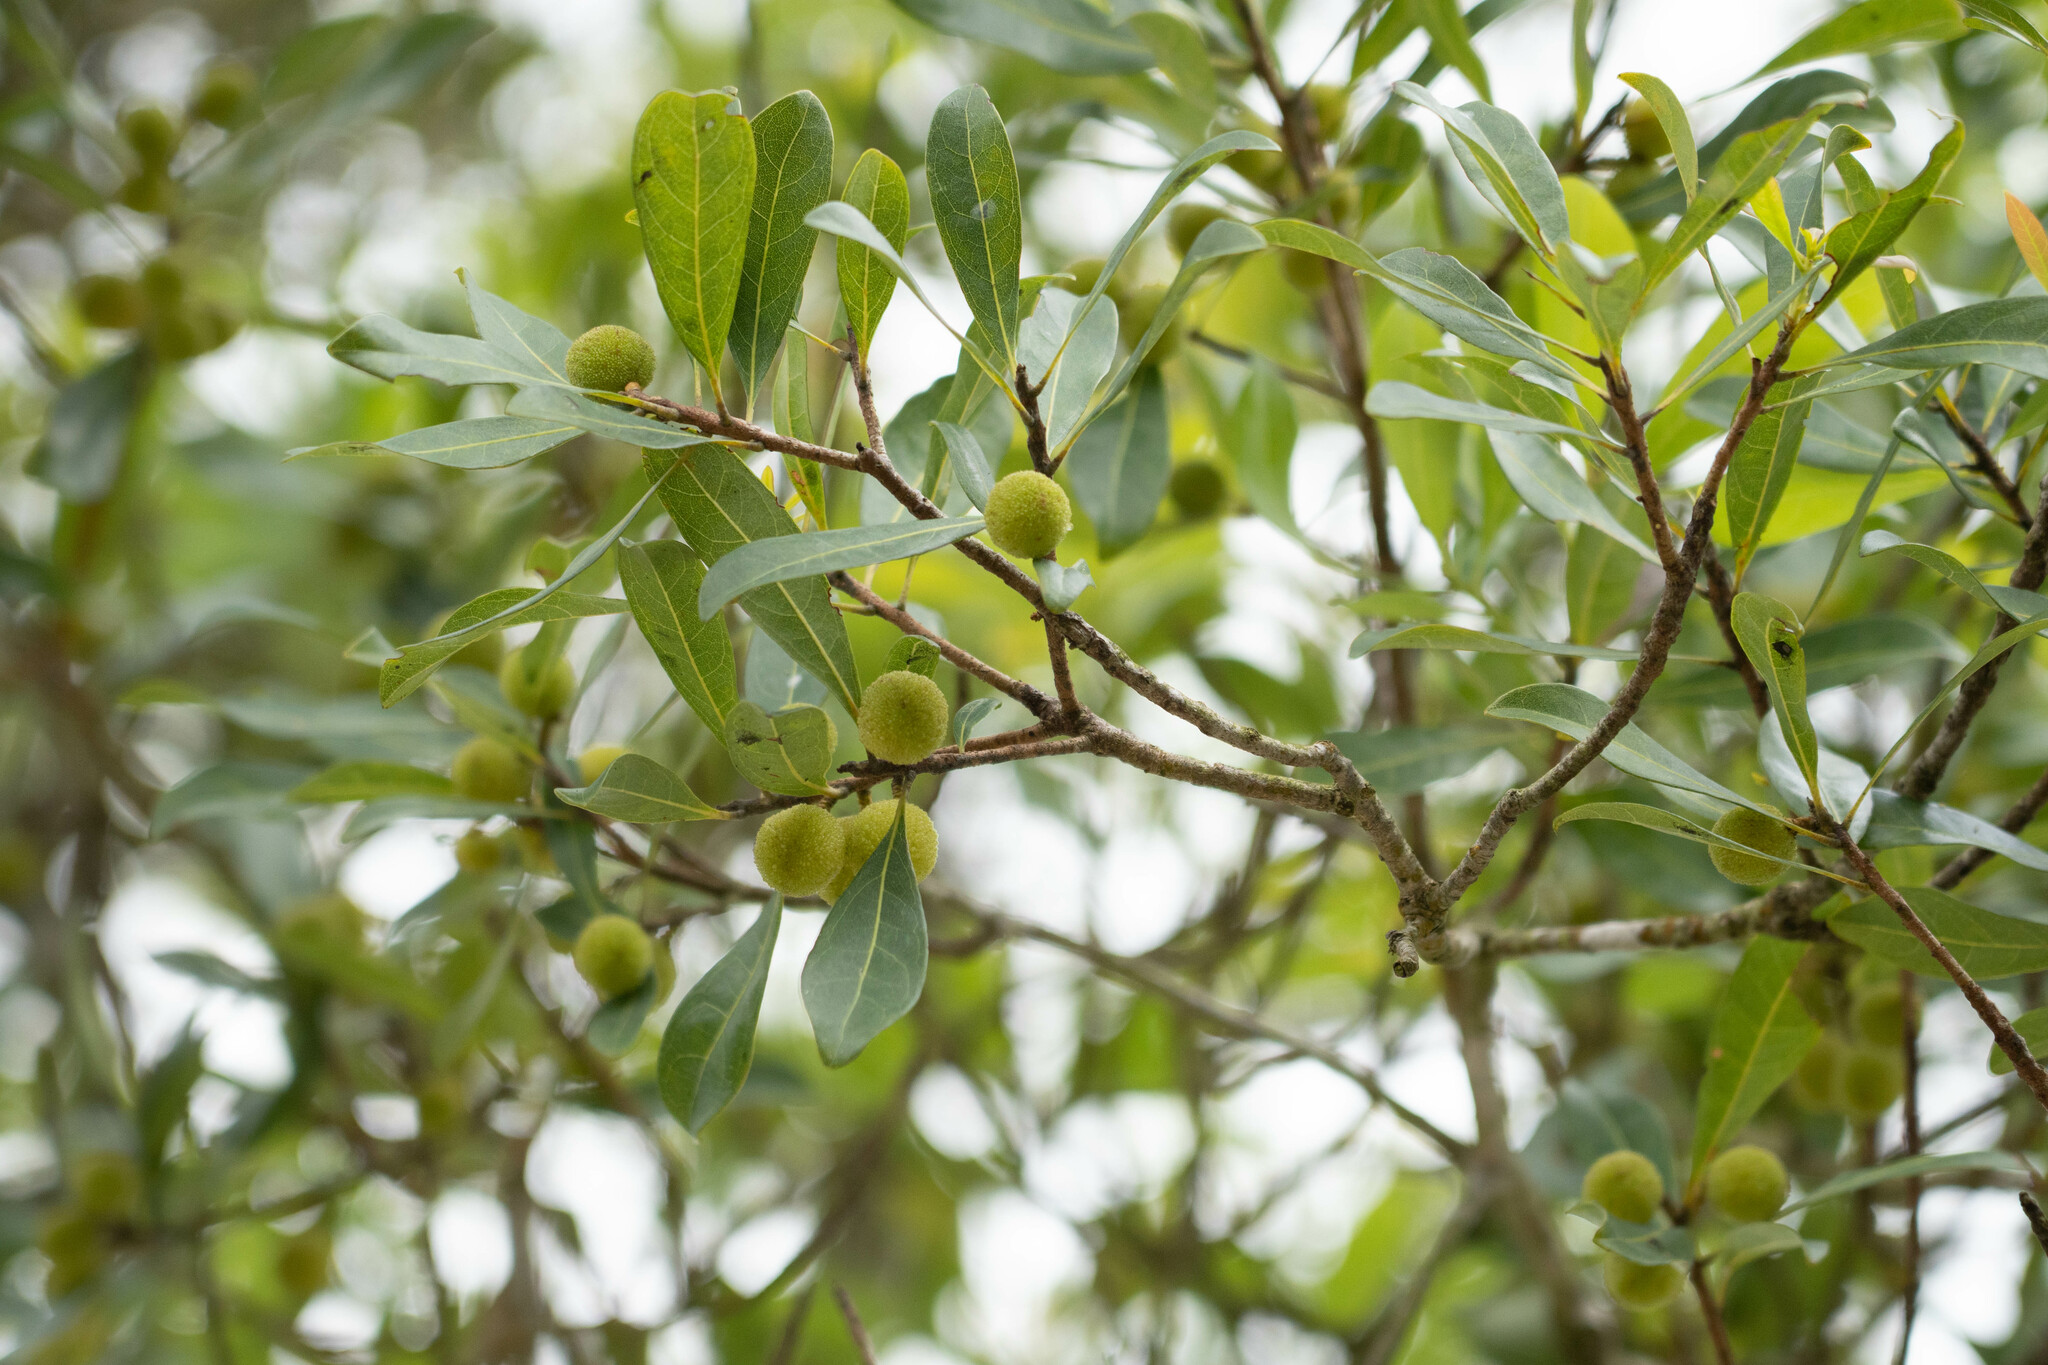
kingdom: Plantae
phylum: Tracheophyta
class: Magnoliopsida
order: Fagales
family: Myricaceae
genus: Morella
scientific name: Morella rubra
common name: Red bayberry
